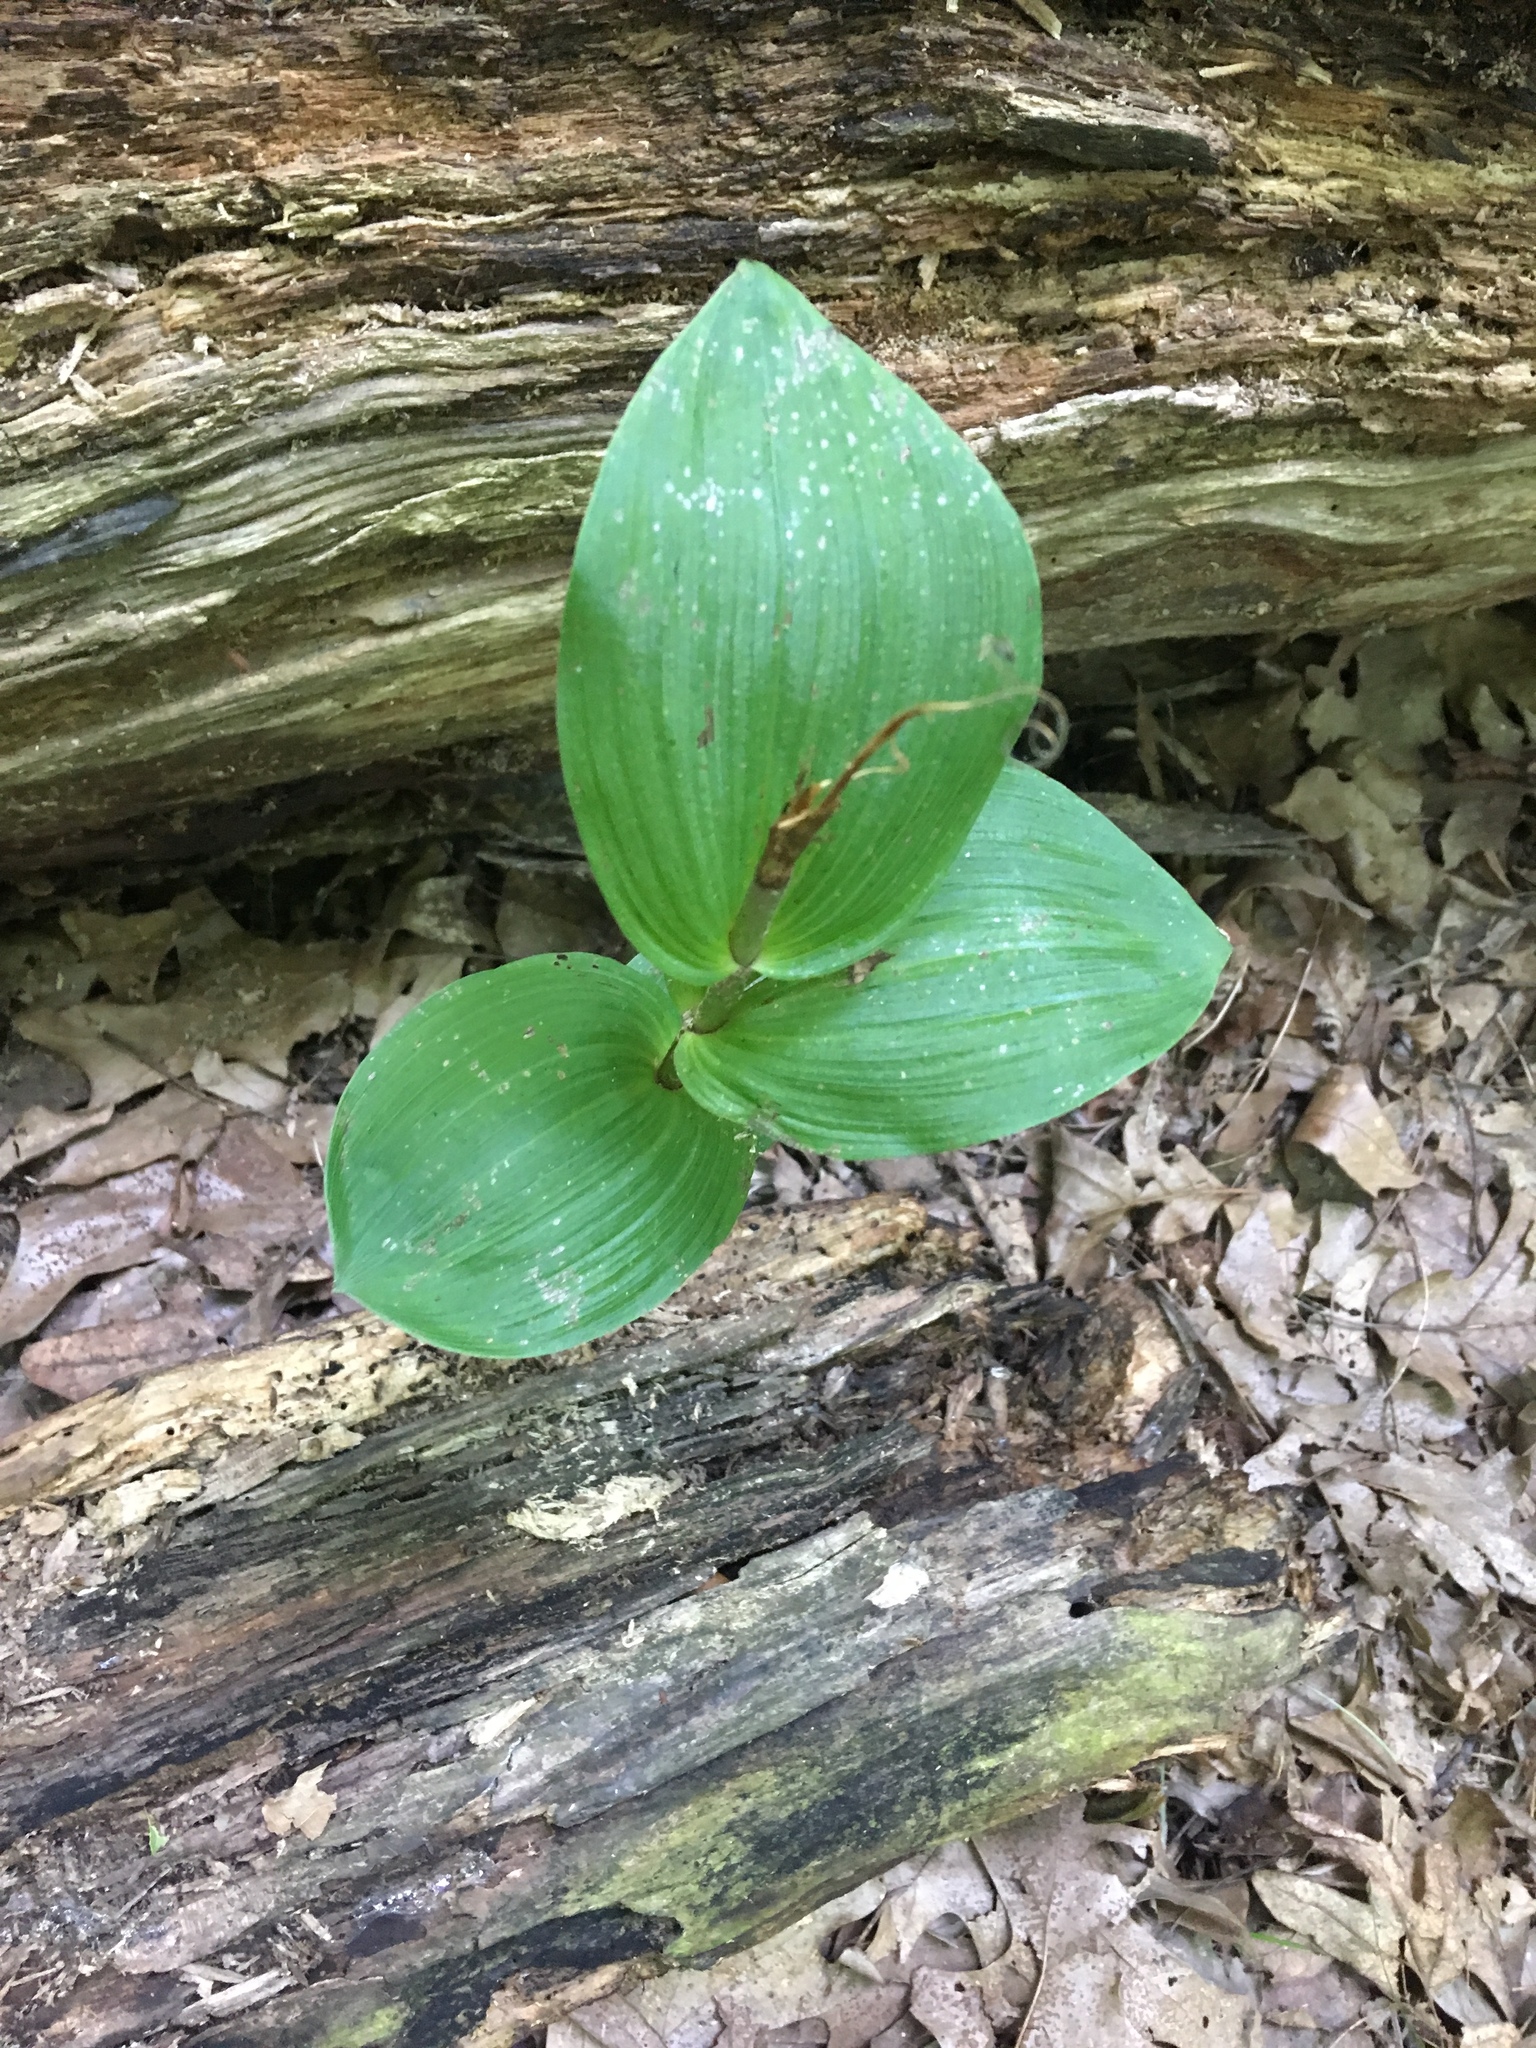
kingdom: Plantae
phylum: Tracheophyta
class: Liliopsida
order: Asparagales
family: Orchidaceae
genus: Epipactis
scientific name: Epipactis helleborine
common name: Broad-leaved helleborine
